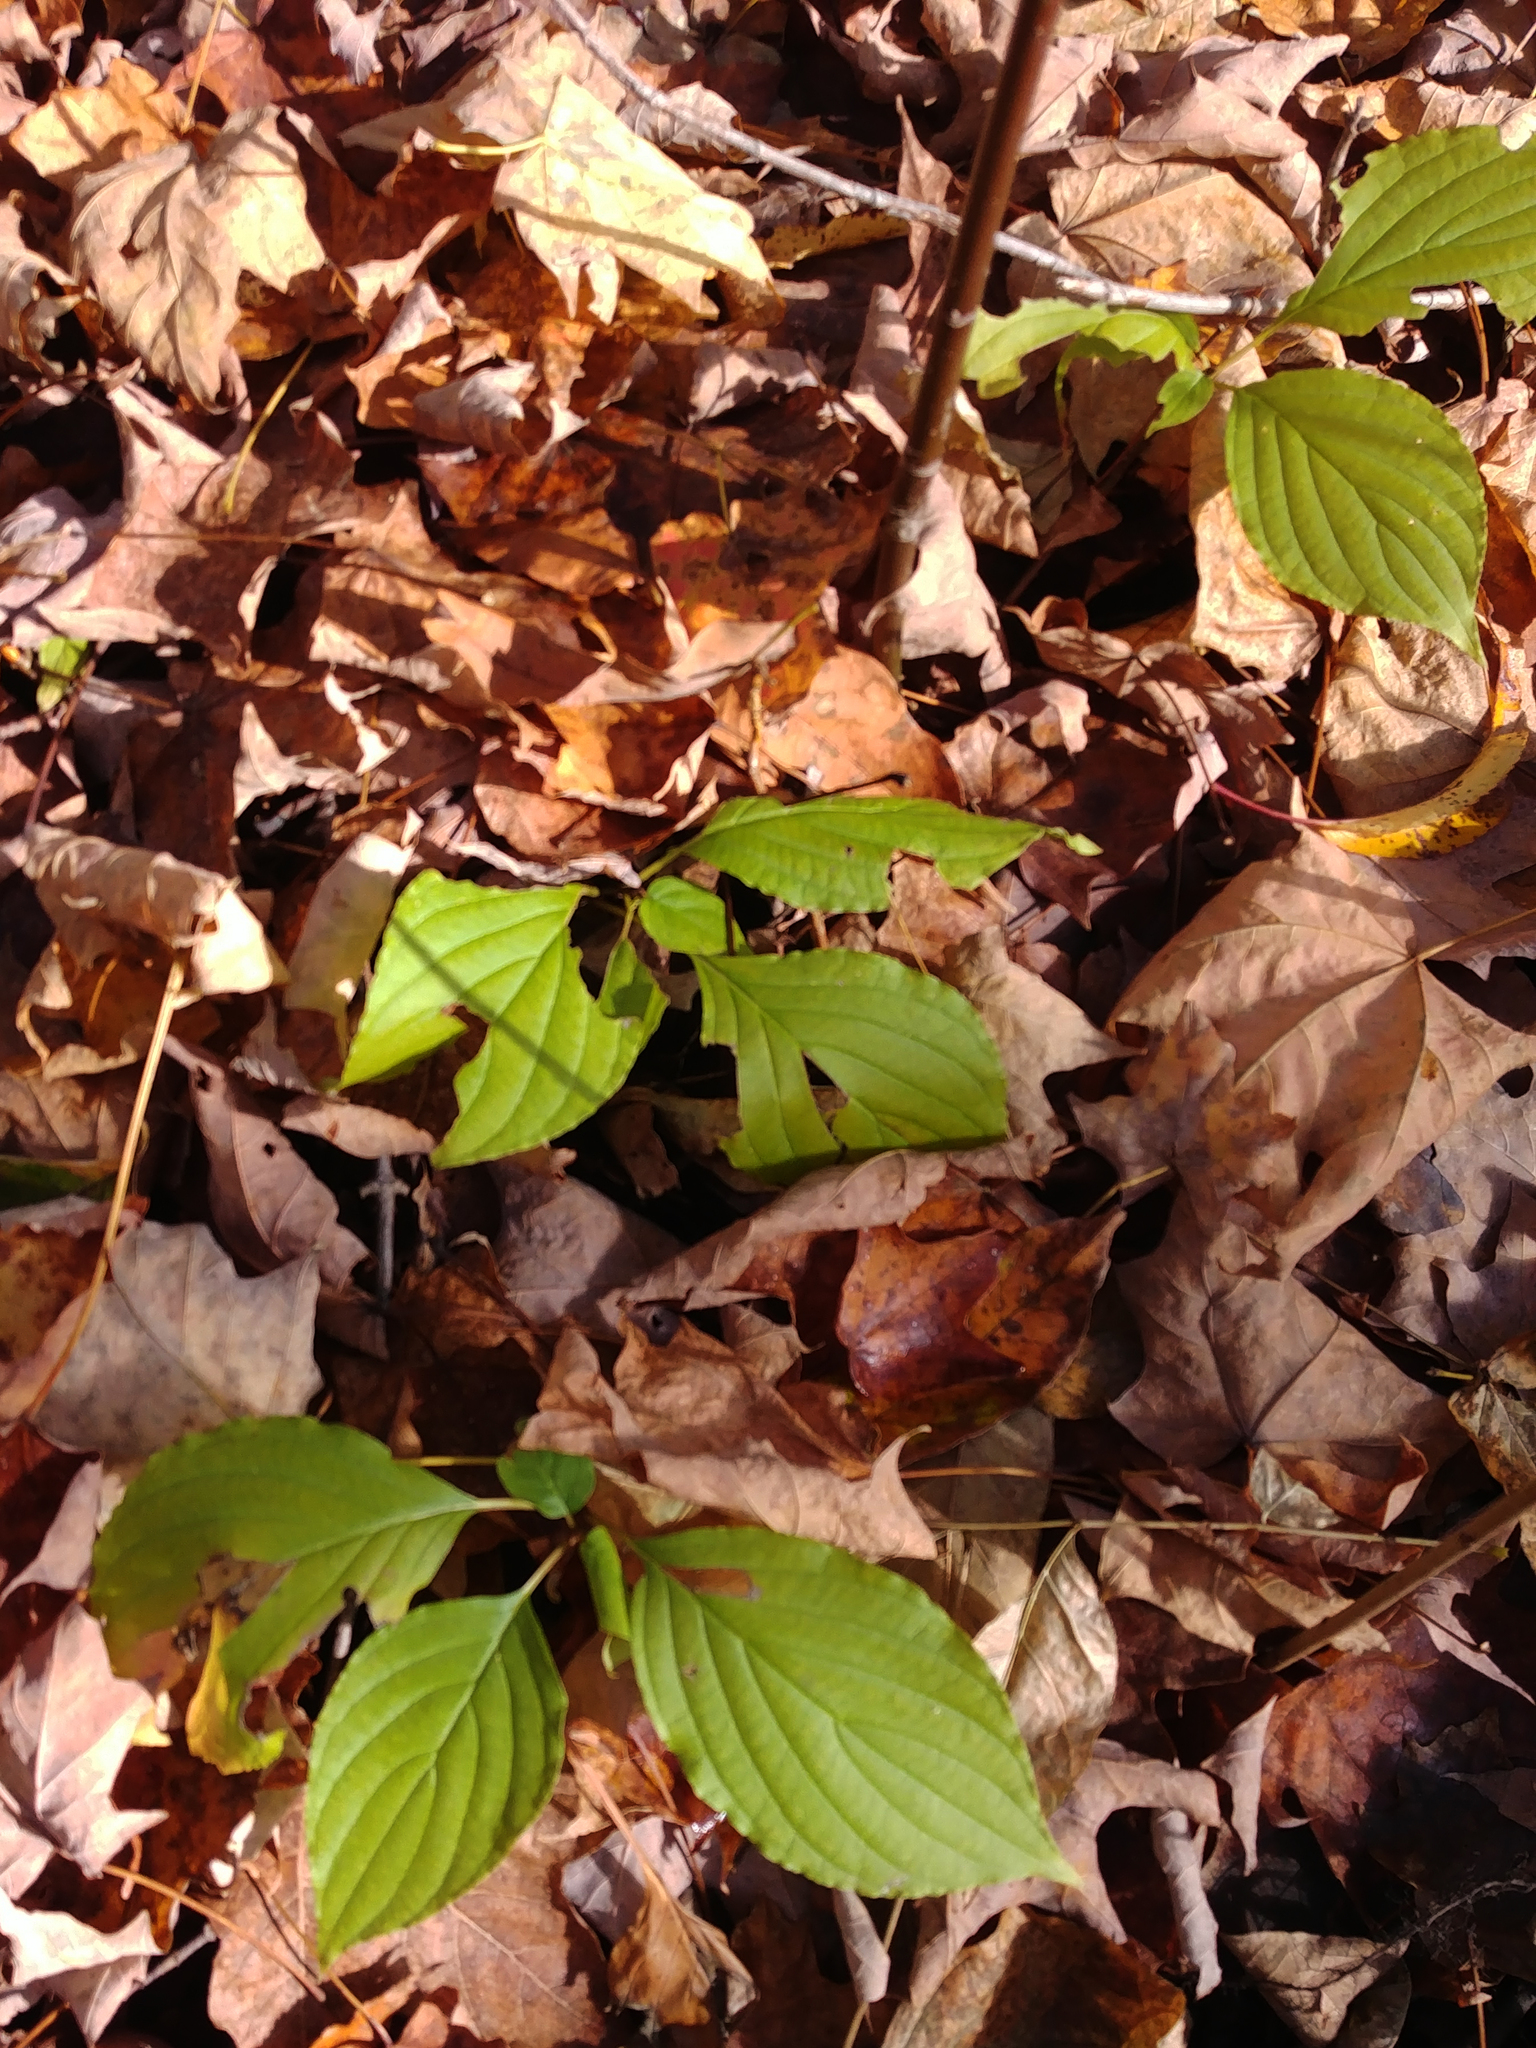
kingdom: Plantae
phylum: Tracheophyta
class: Magnoliopsida
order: Cornales
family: Cornaceae
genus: Cornus
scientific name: Cornus alternifolia
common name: Pagoda dogwood
